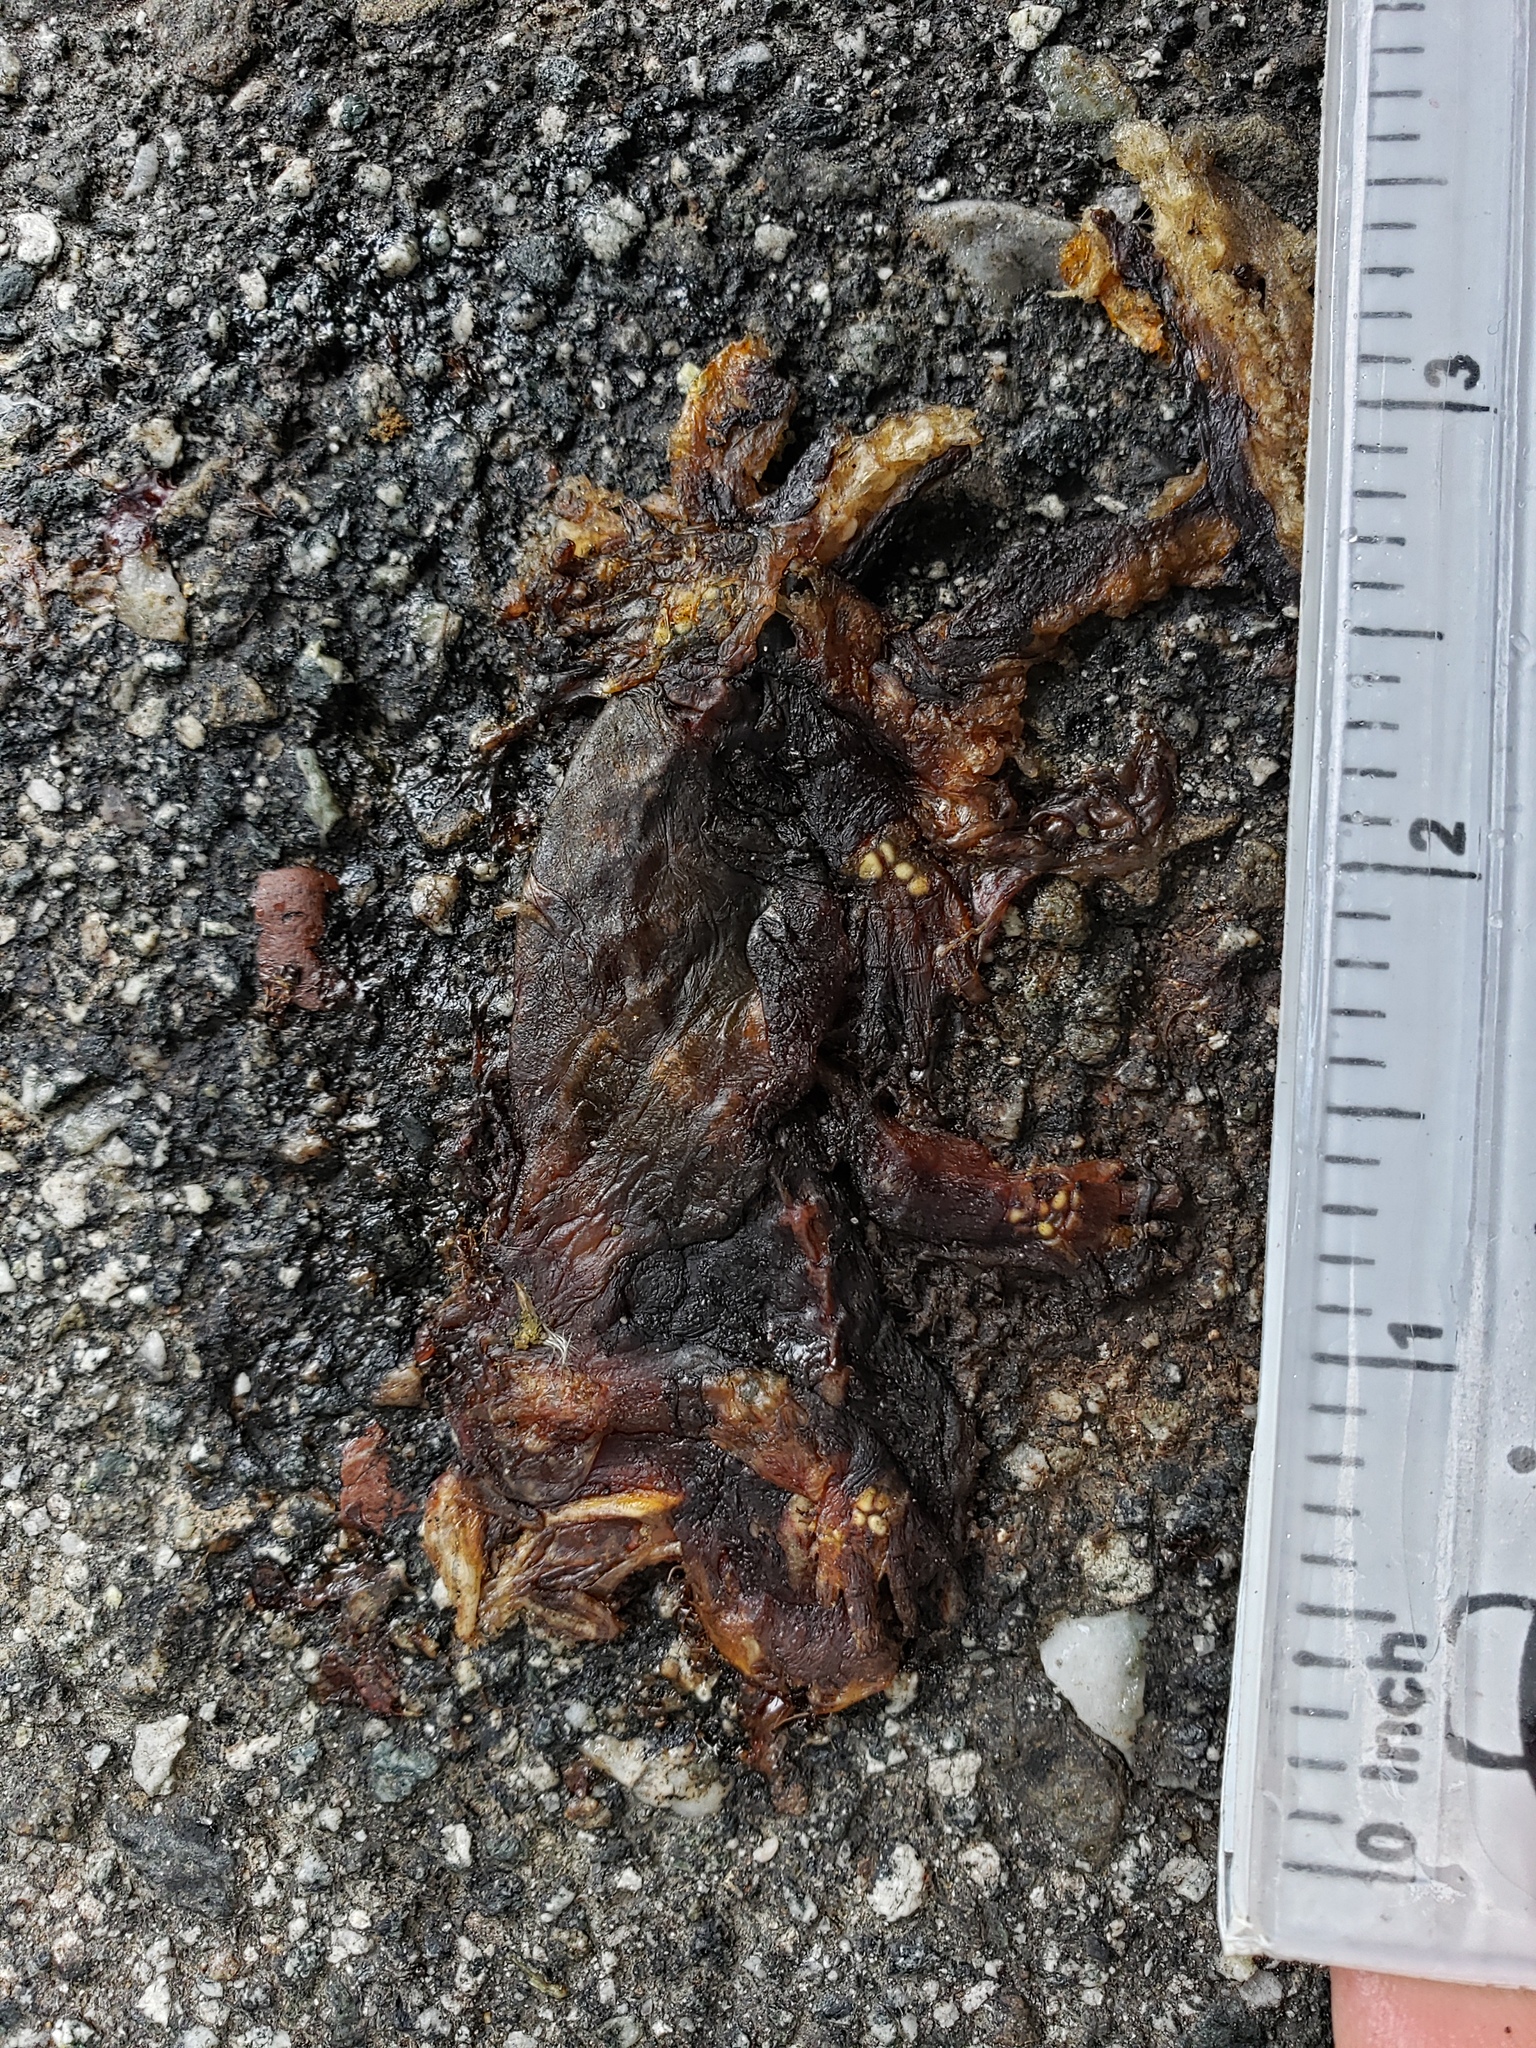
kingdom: Animalia
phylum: Chordata
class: Amphibia
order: Caudata
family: Salamandridae
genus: Taricha
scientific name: Taricha
